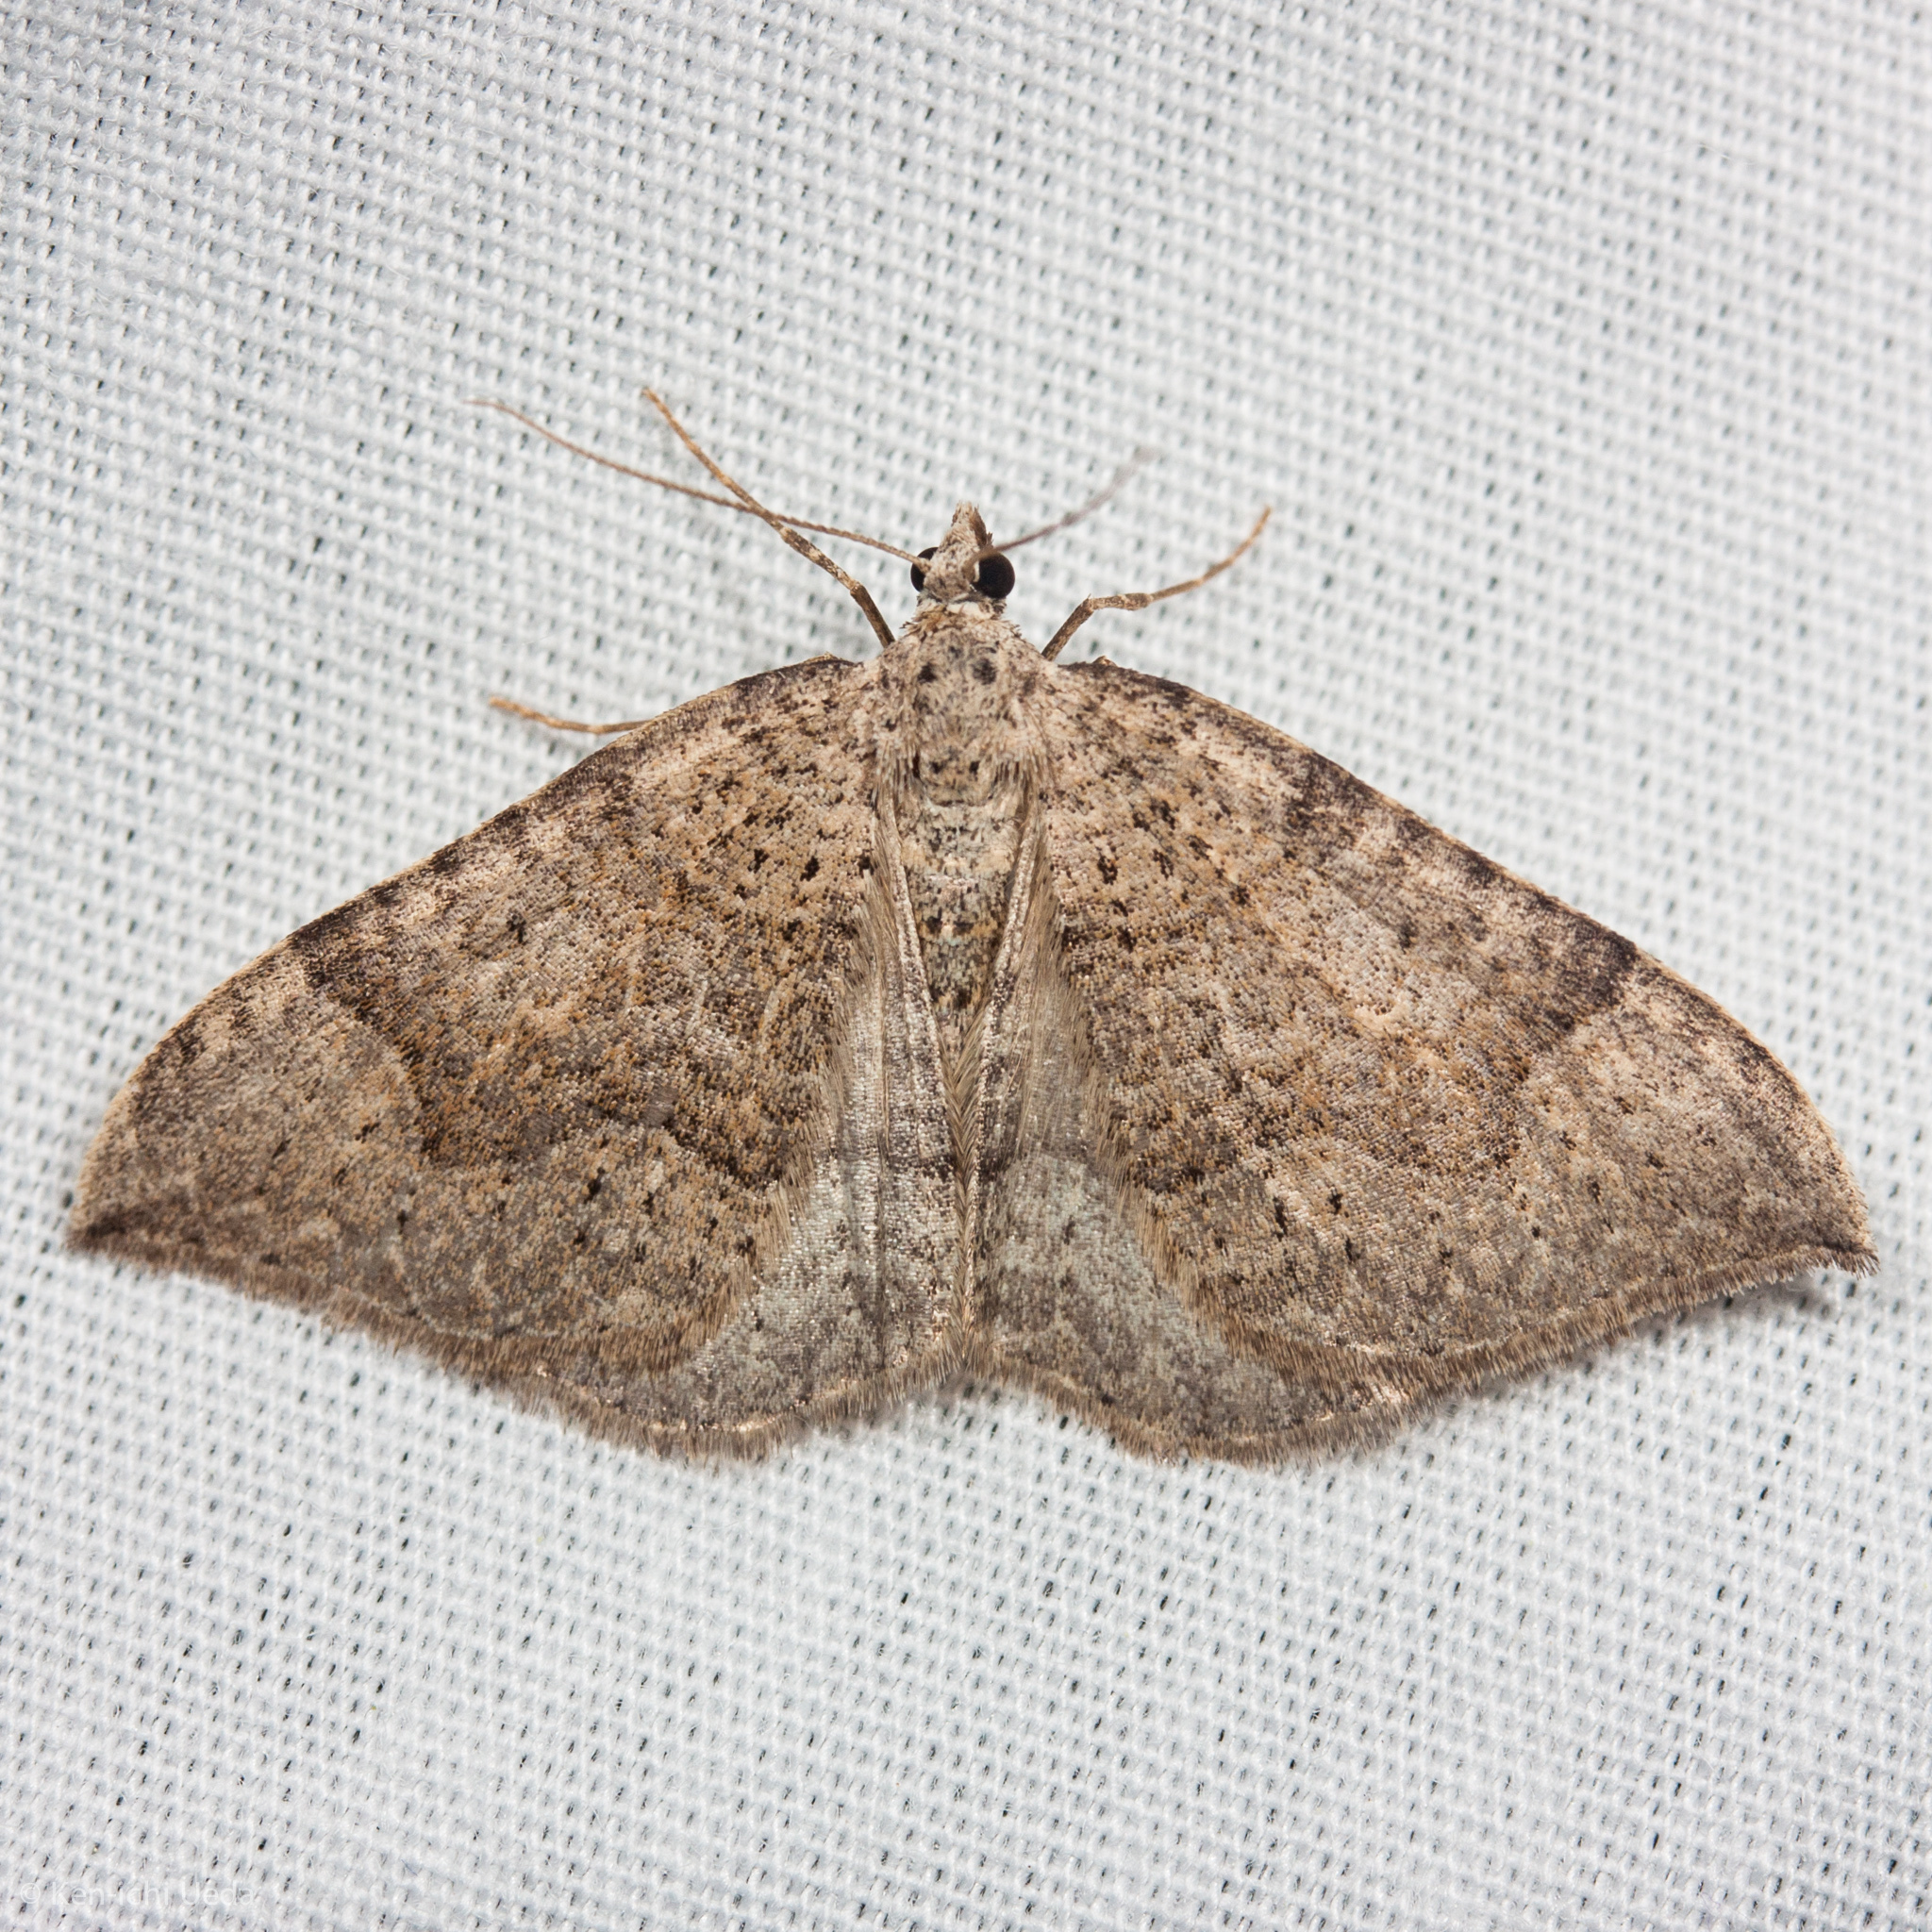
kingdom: Animalia
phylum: Arthropoda
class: Insecta
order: Lepidoptera
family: Geometridae
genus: Zenophleps
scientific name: Zenophleps lignicolorata
